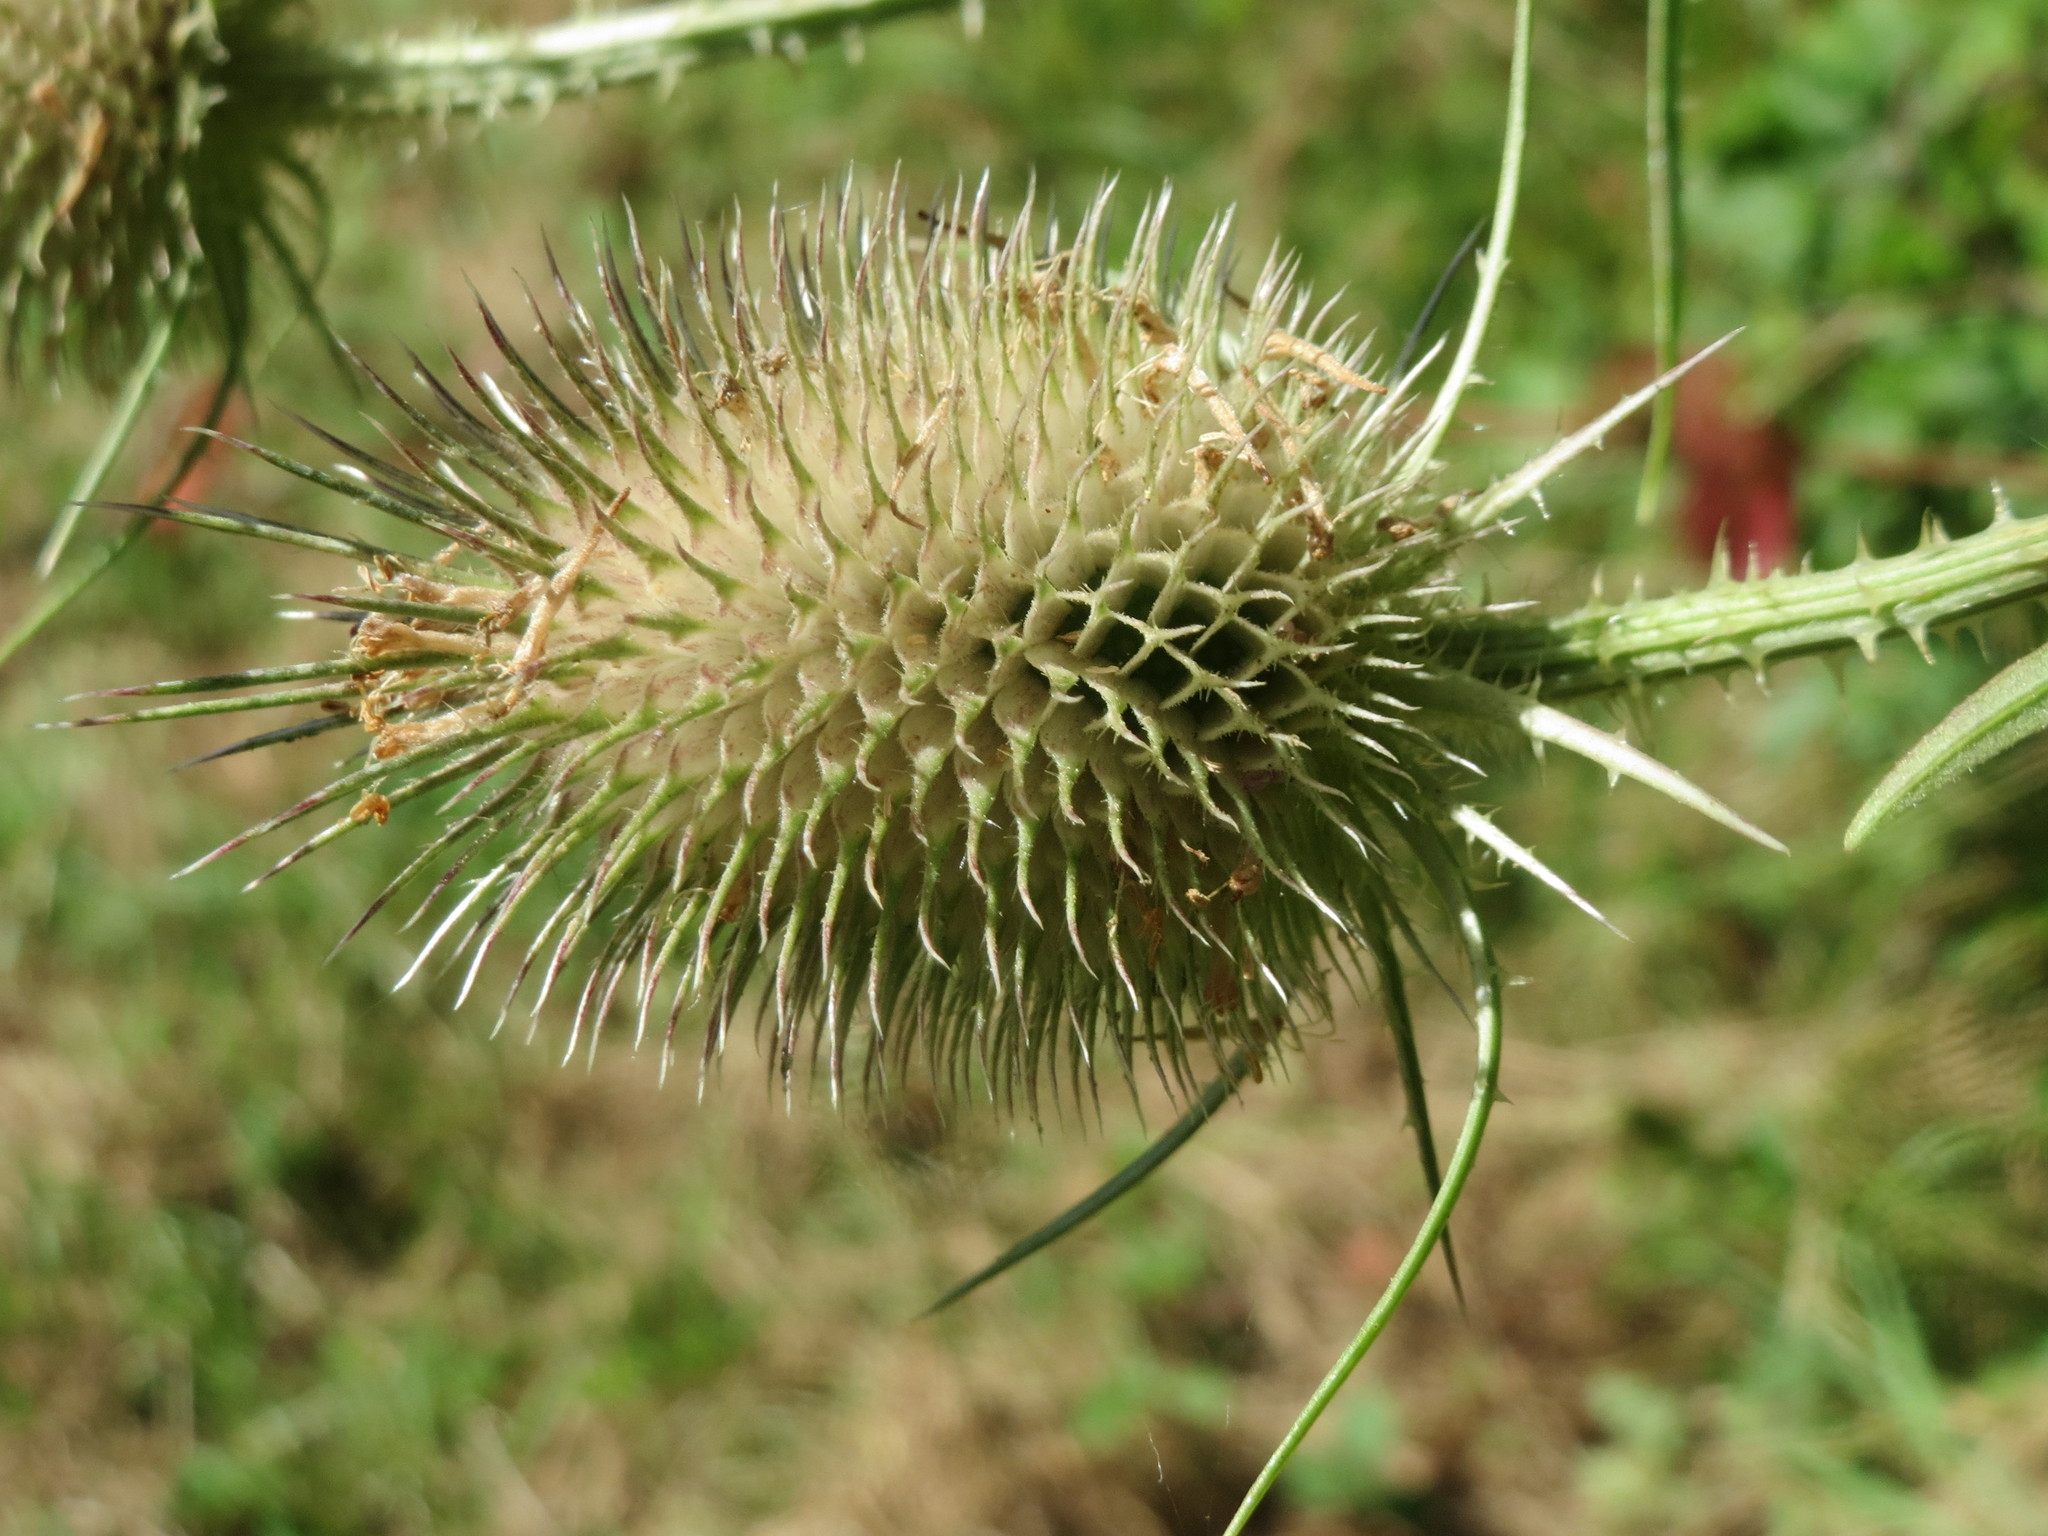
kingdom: Plantae
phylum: Tracheophyta
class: Magnoliopsida
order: Dipsacales
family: Caprifoliaceae
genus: Dipsacus
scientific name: Dipsacus fullonum
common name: Teasel
